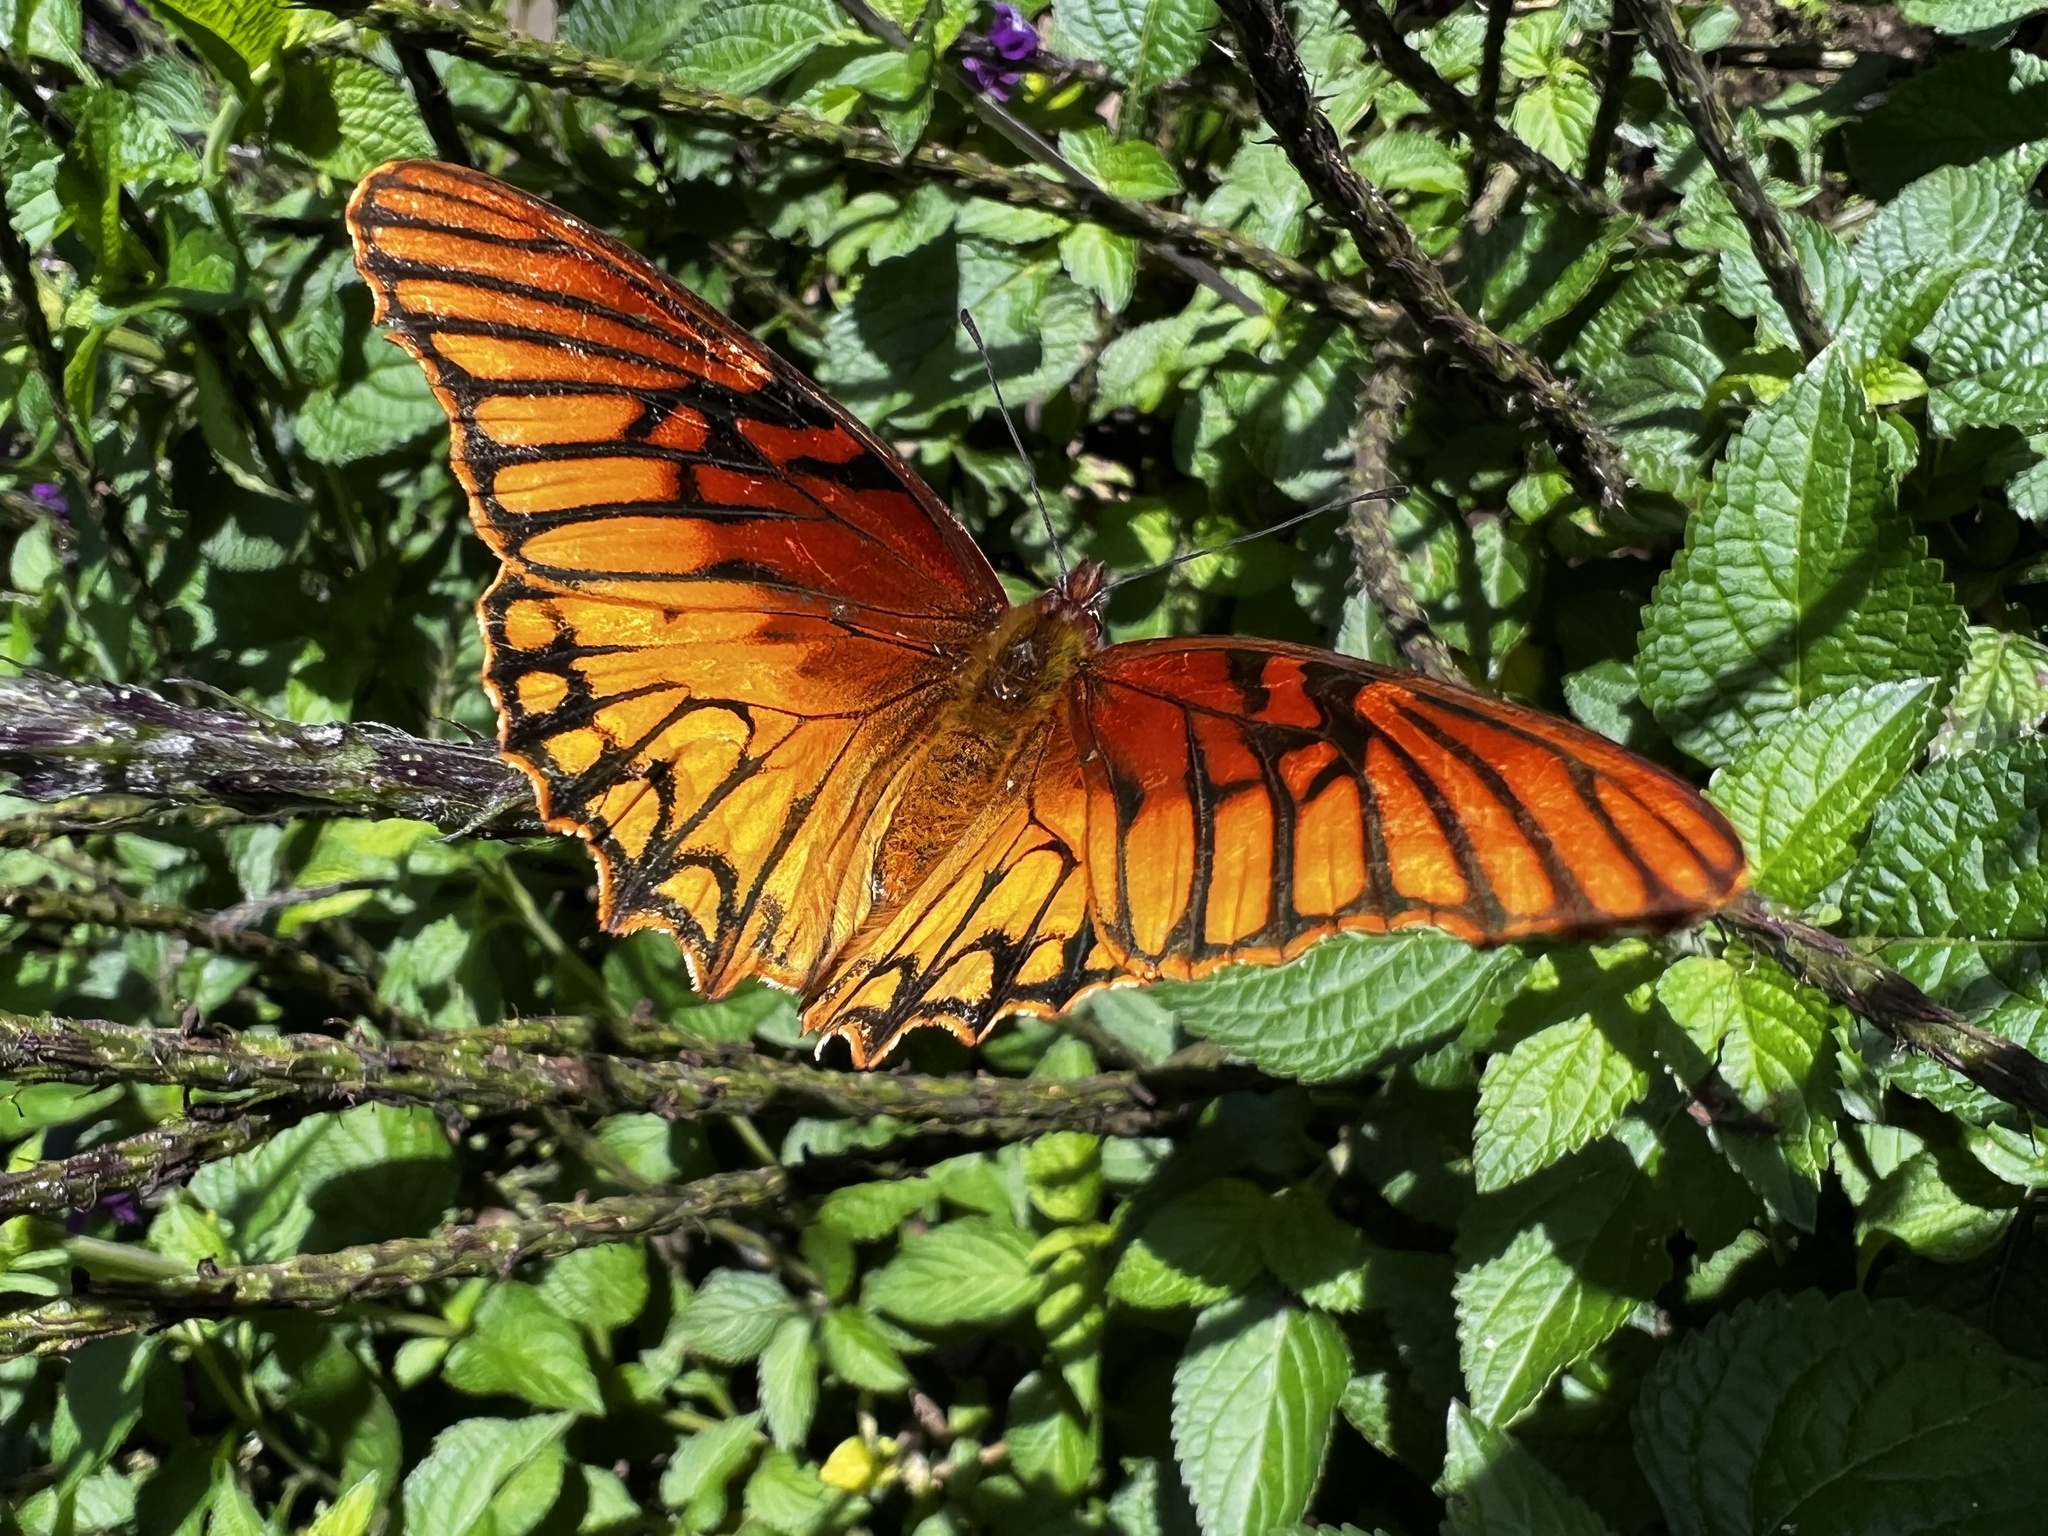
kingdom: Animalia
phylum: Arthropoda
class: Insecta
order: Lepidoptera
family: Nymphalidae
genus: Dione
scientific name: Dione moneta
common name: Mexican silverspot
